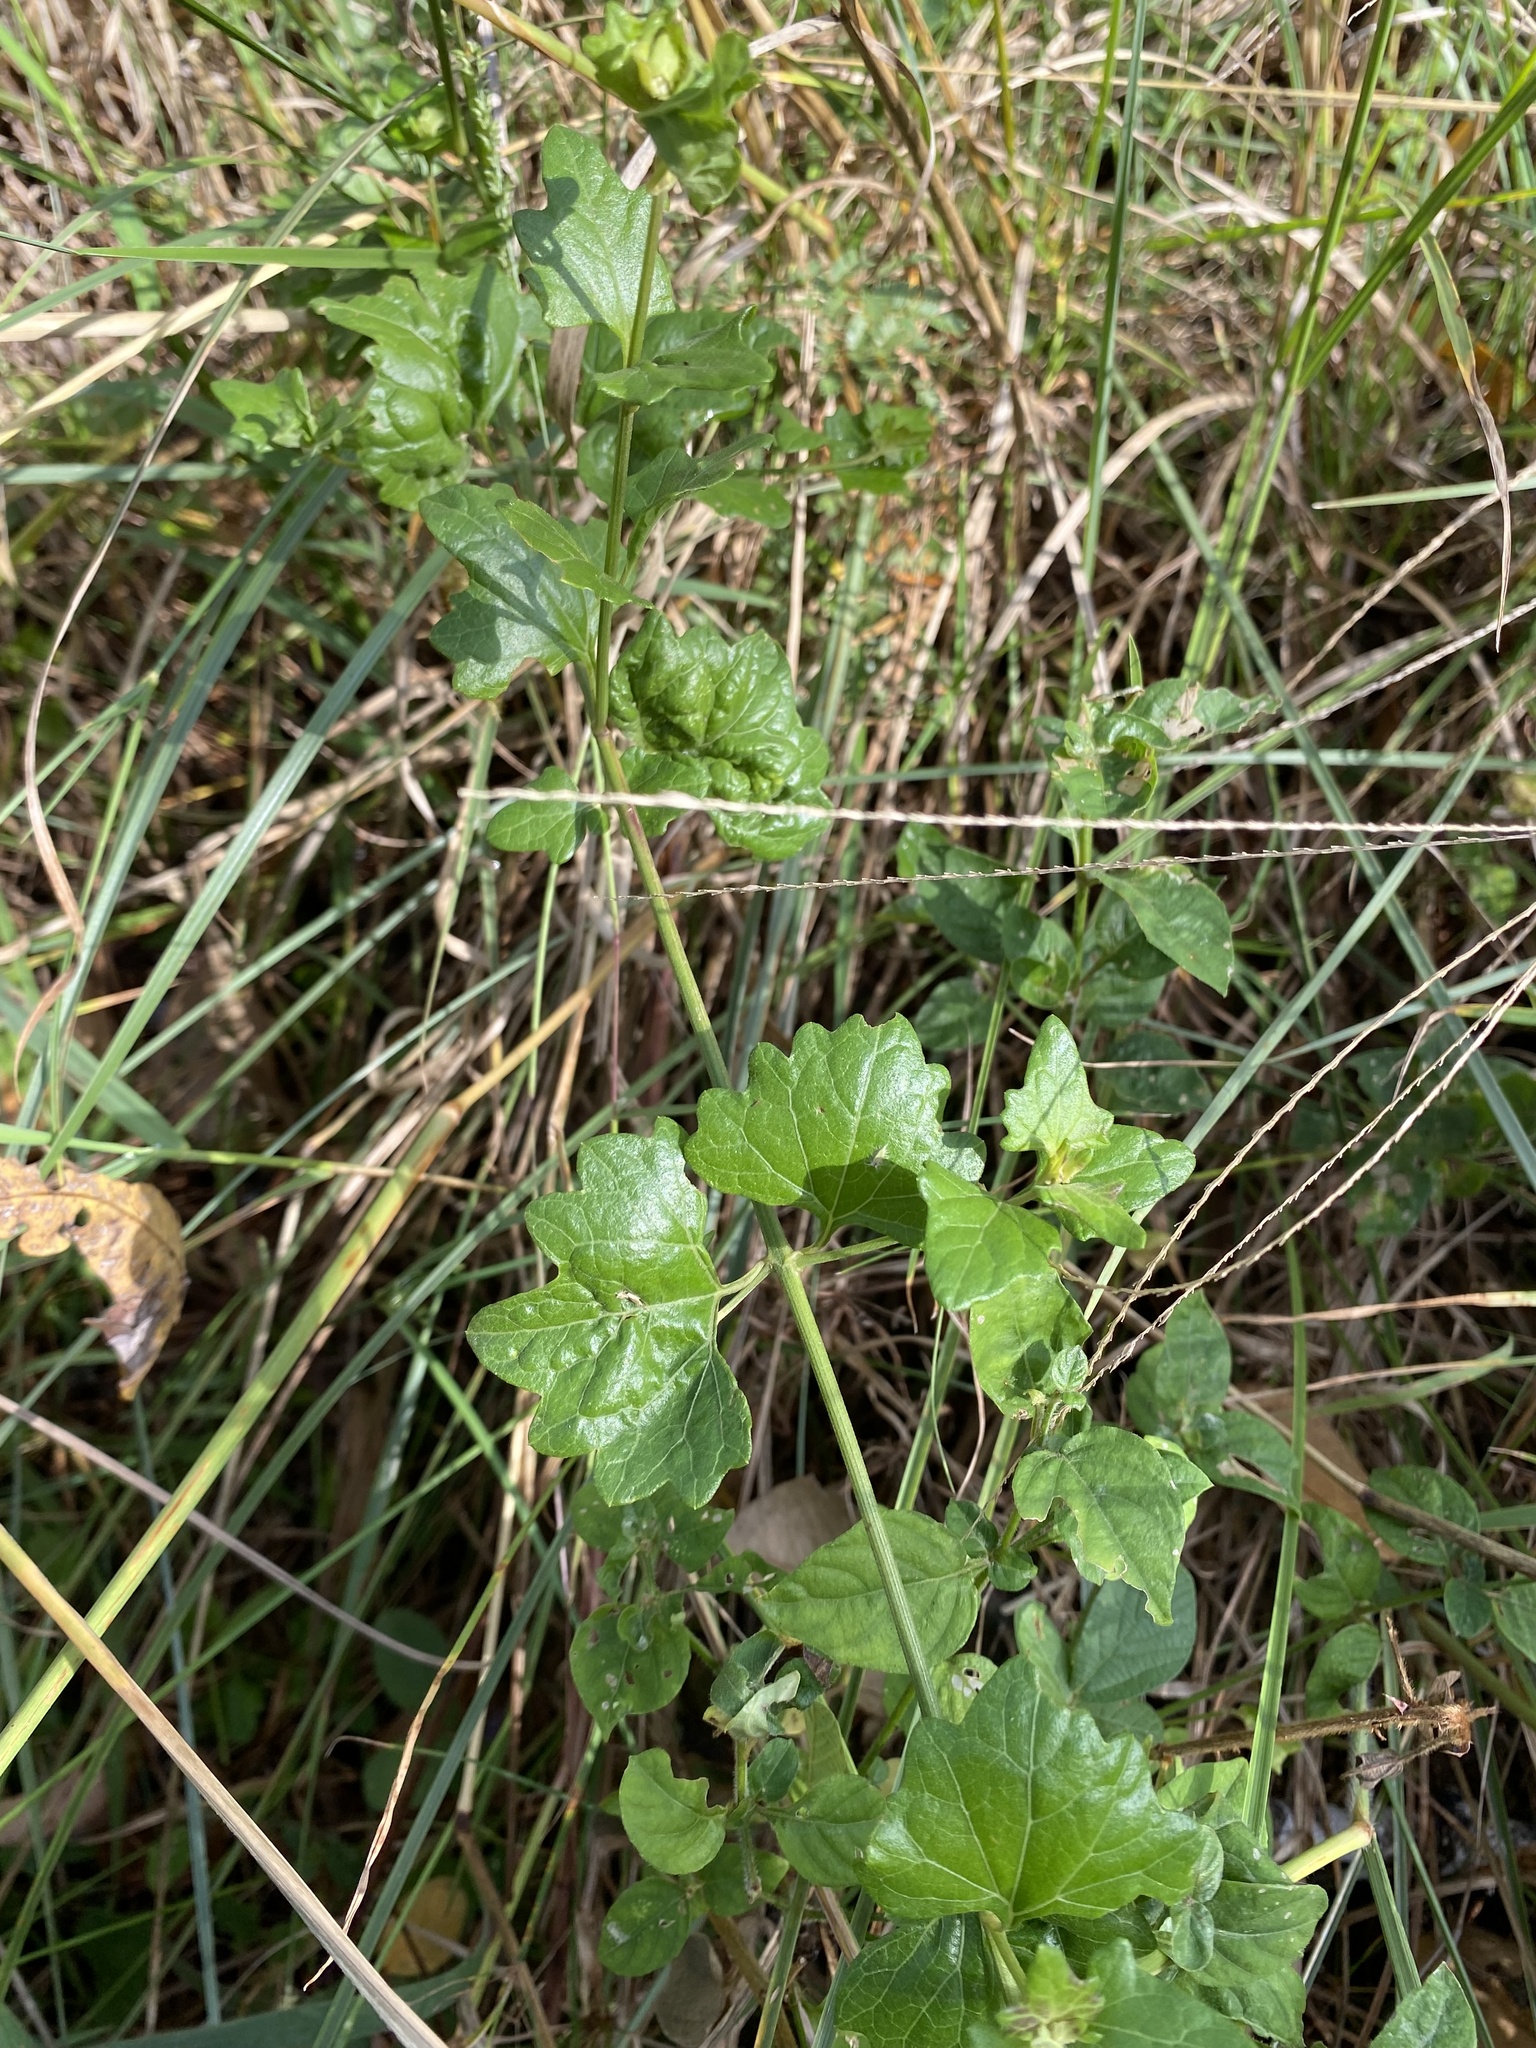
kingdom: Plantae
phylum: Tracheophyta
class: Magnoliopsida
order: Asterales
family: Asteraceae
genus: Microglossa
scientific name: Microglossa mespilifolia
